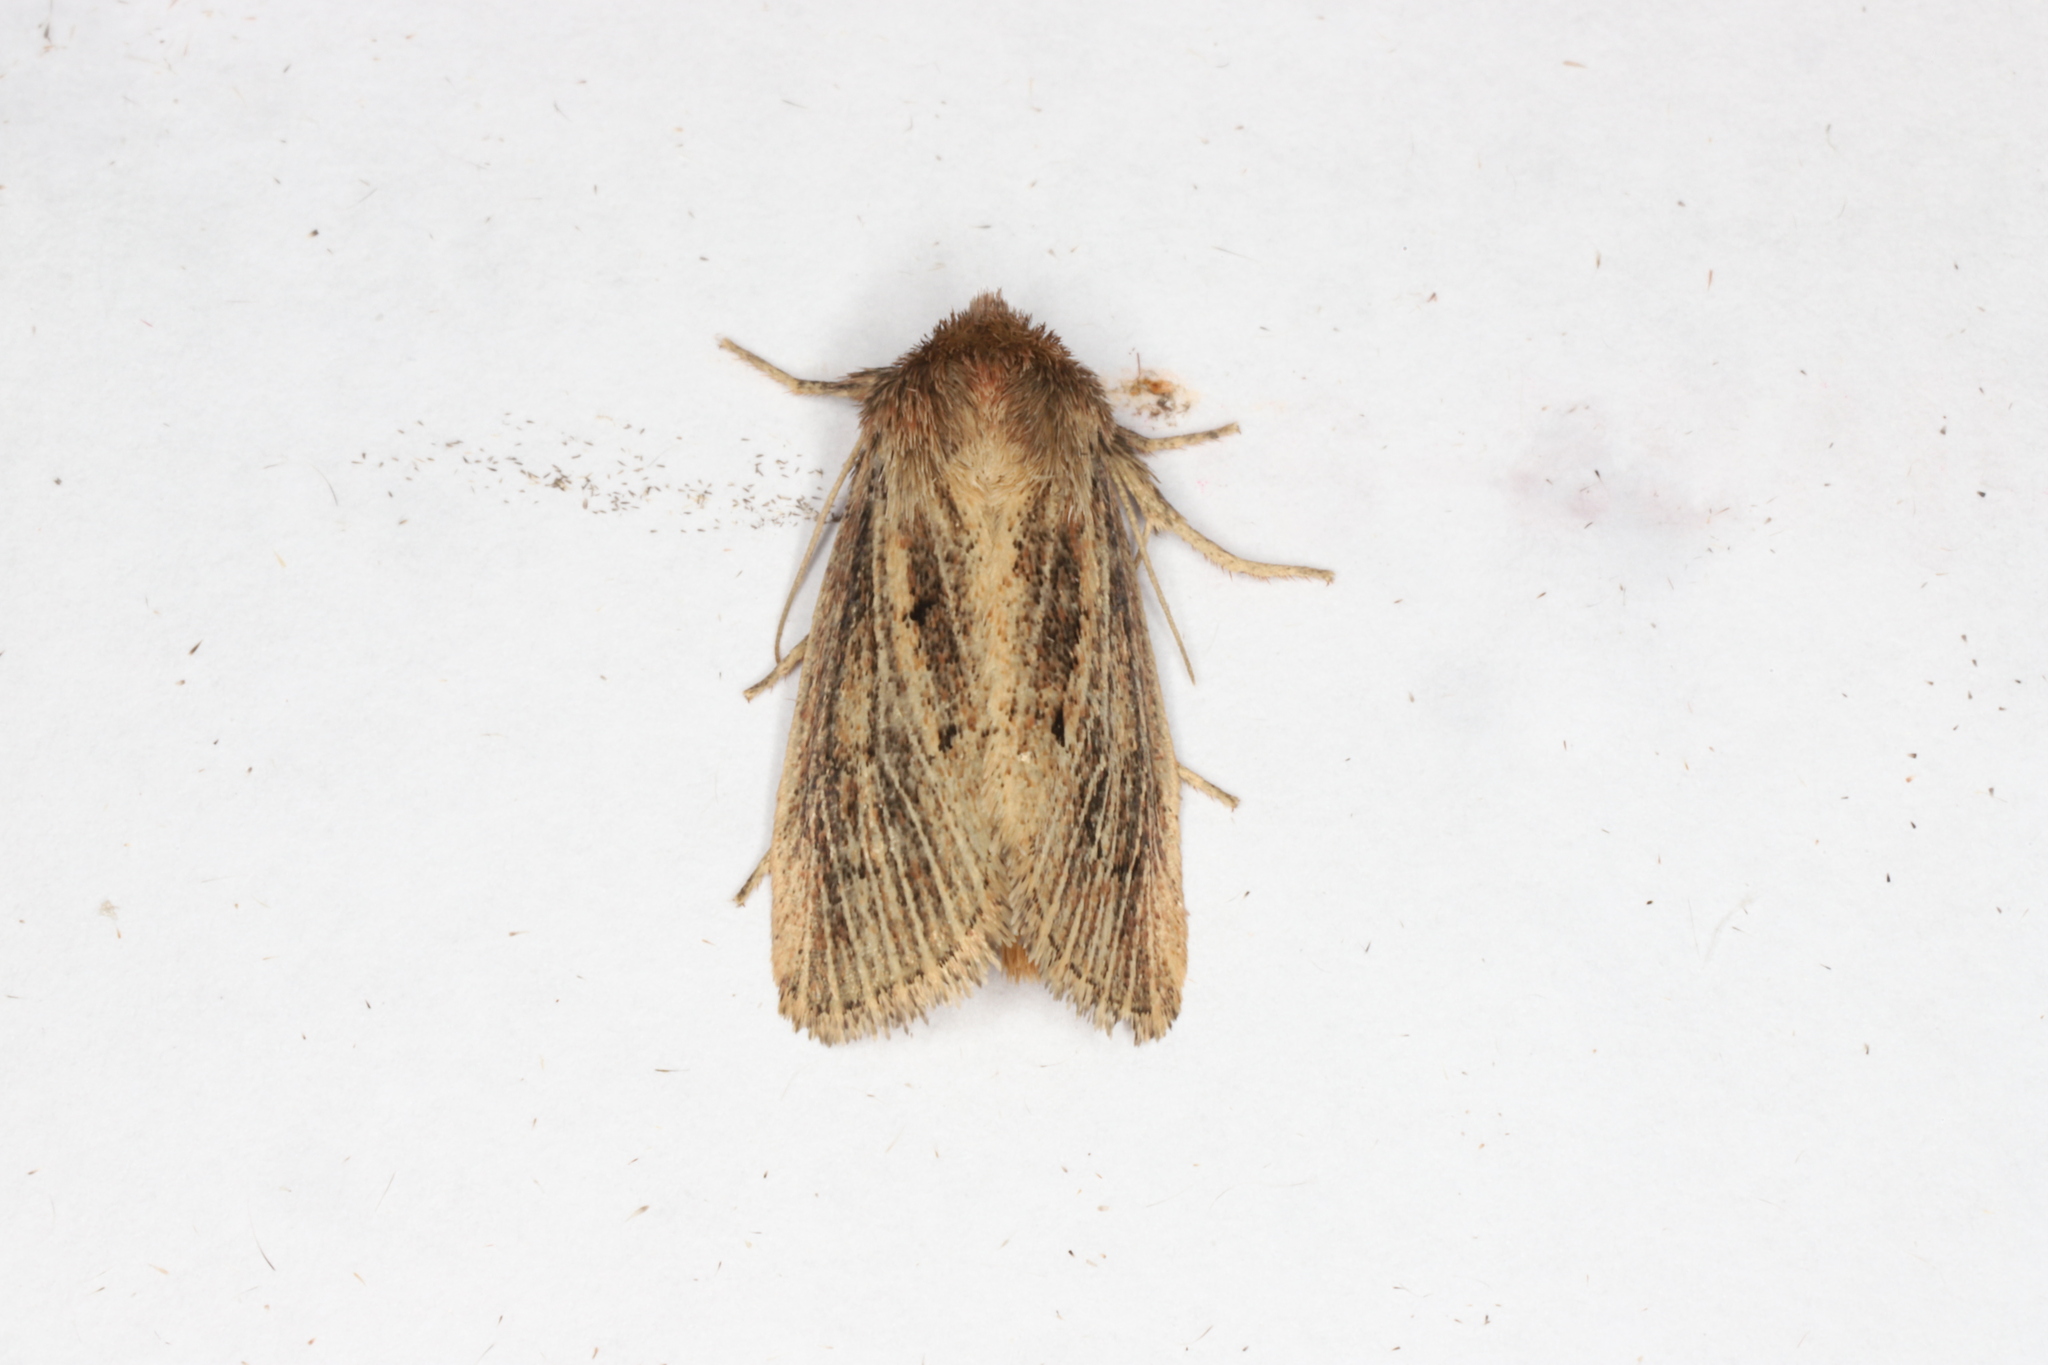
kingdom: Animalia
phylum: Arthropoda
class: Insecta
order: Lepidoptera
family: Noctuidae
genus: Hypocoena
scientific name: Hypocoena inquinata
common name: Tufted sedge moth
